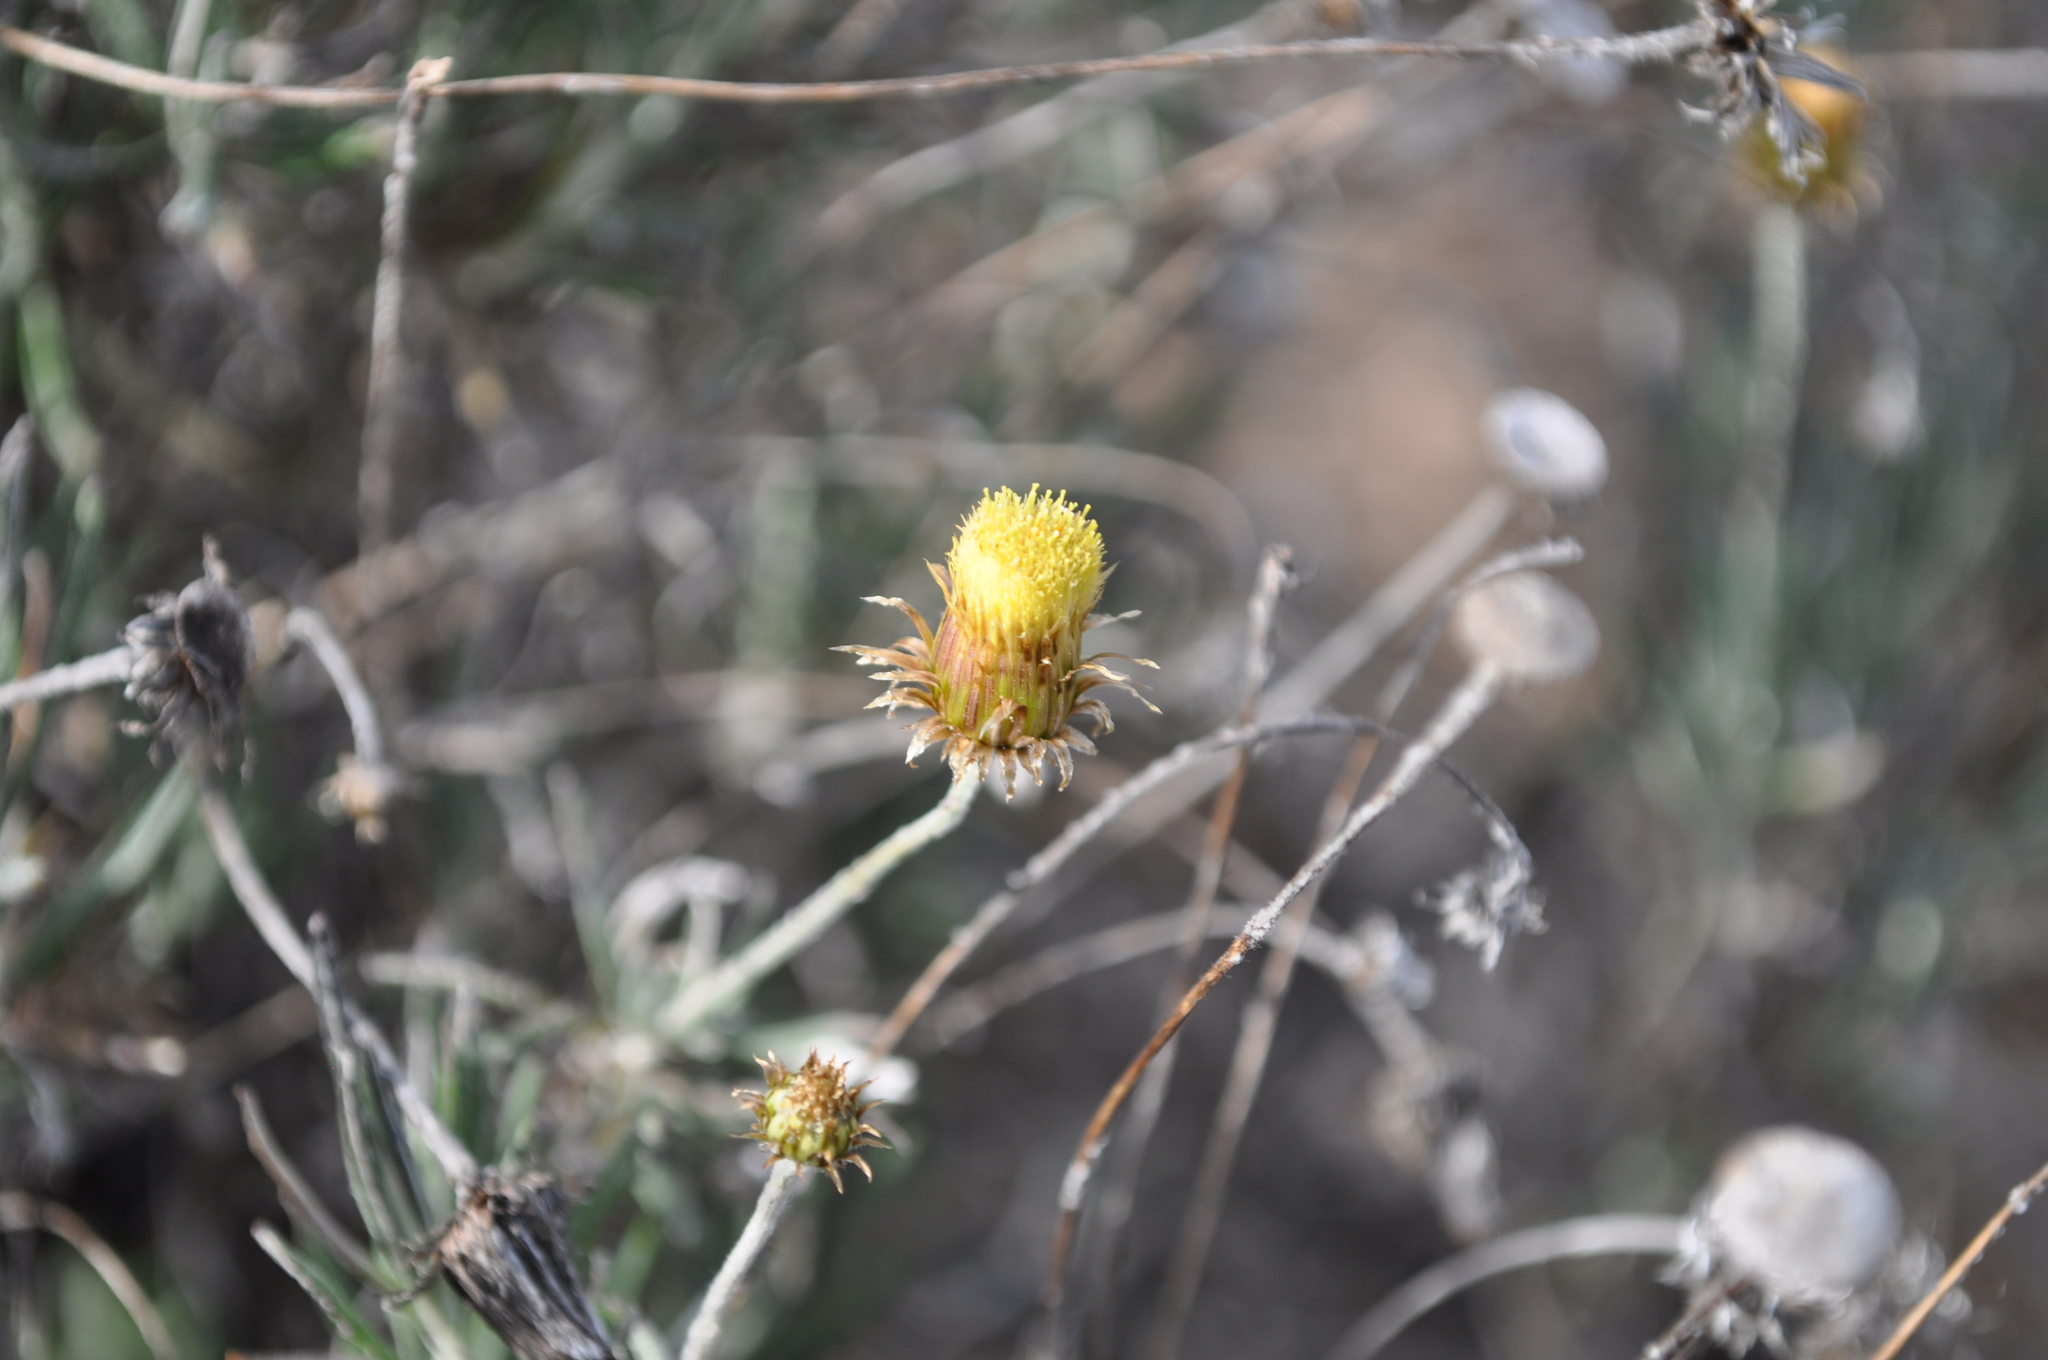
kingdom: Plantae
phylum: Tracheophyta
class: Magnoliopsida
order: Asterales
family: Asteraceae
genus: Phagnalon
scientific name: Phagnalon saxatile
